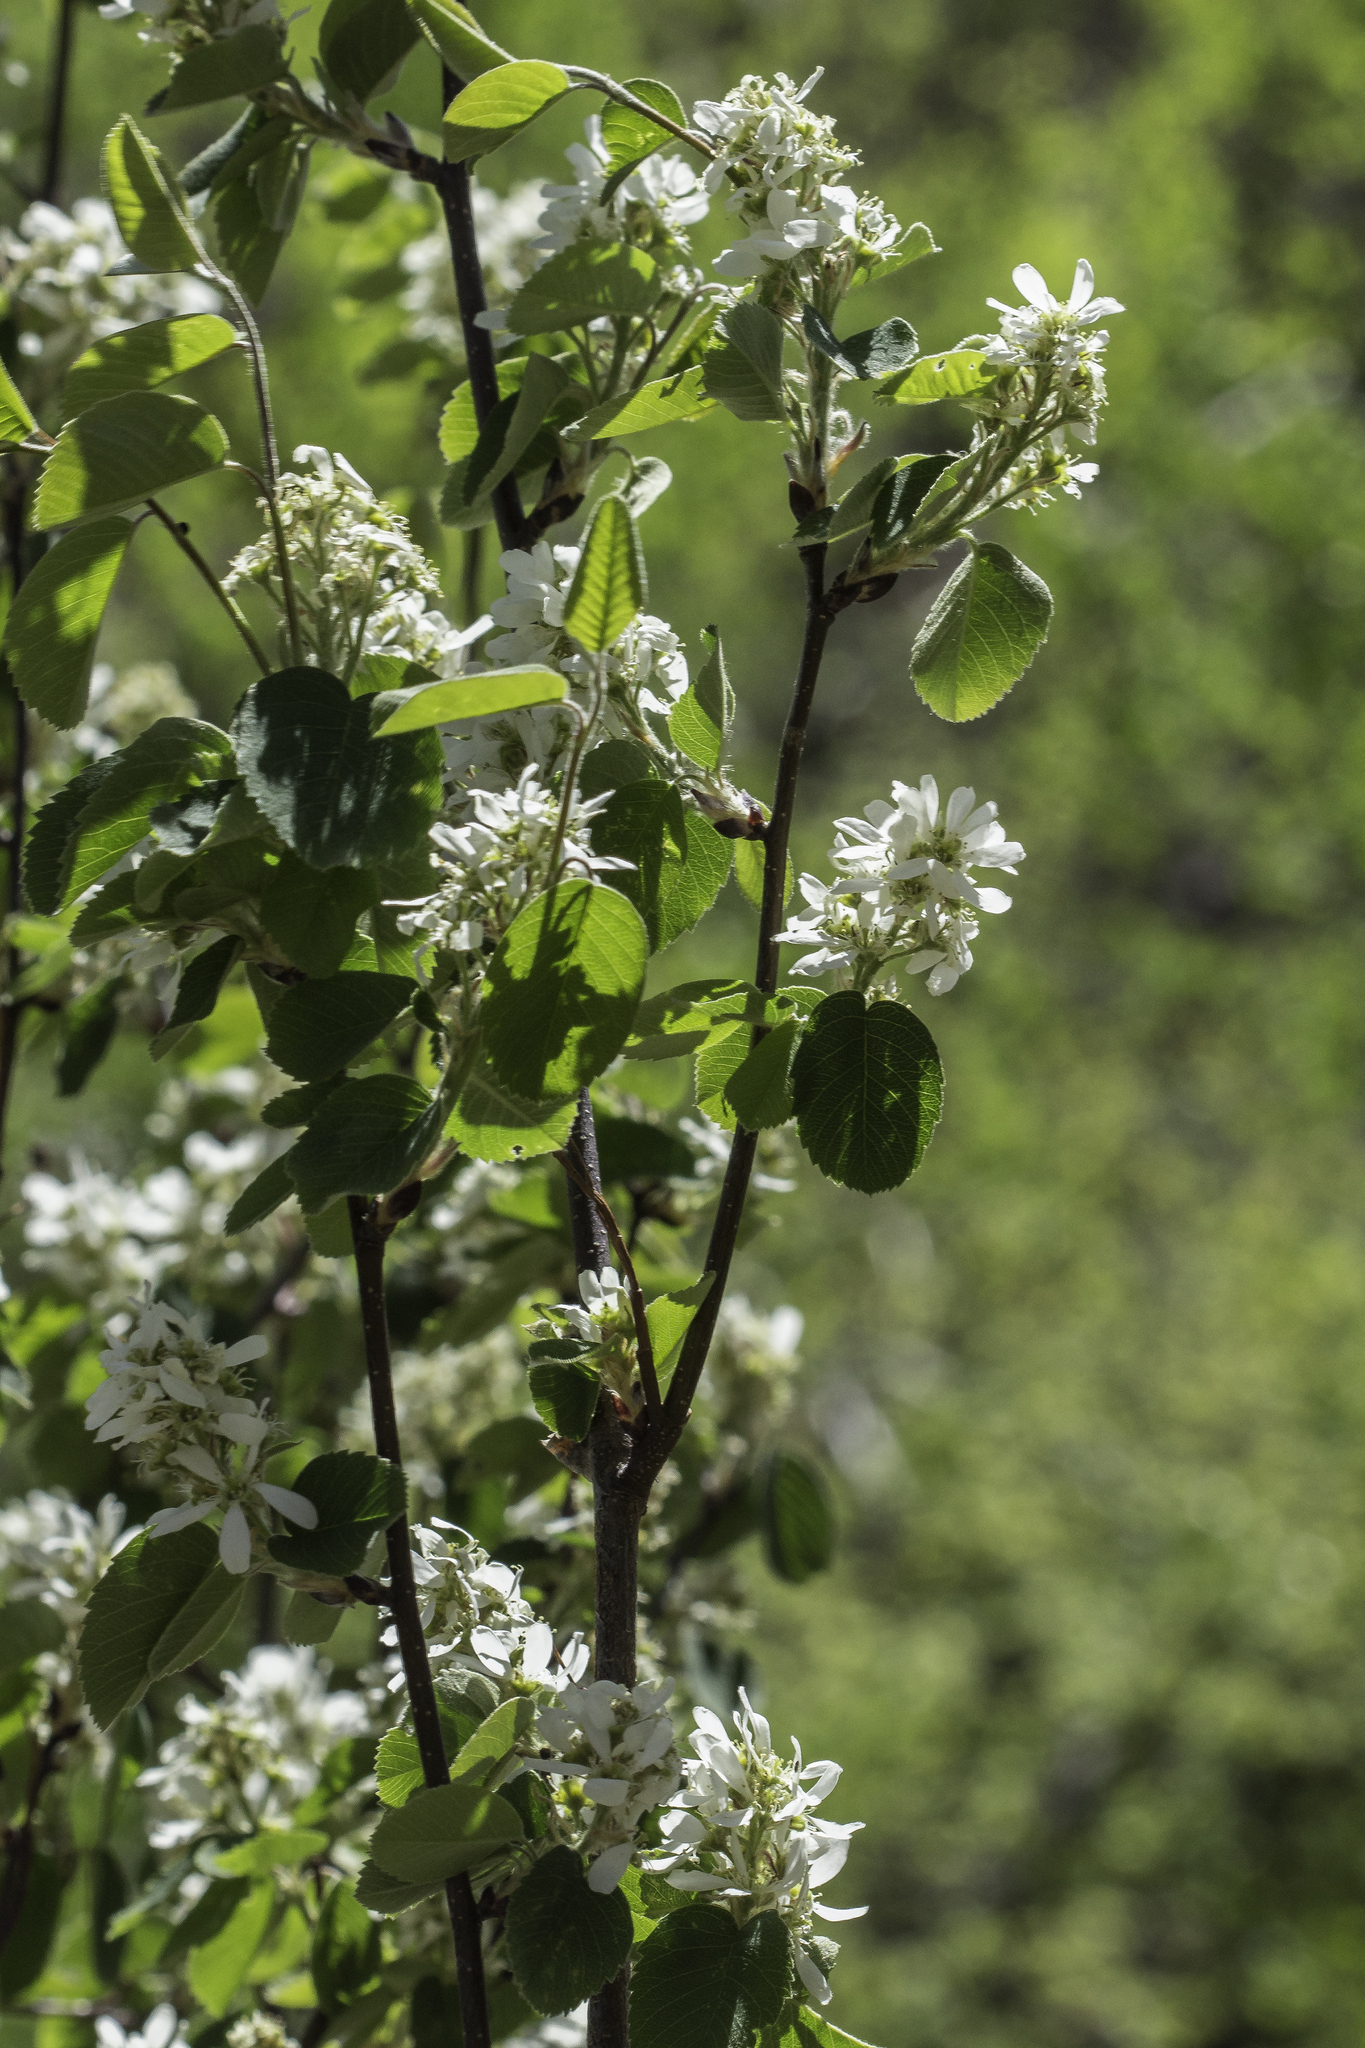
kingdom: Plantae
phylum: Tracheophyta
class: Magnoliopsida
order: Rosales
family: Rosaceae
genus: Amelanchier
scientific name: Amelanchier utahensis
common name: Utah serviceberry
